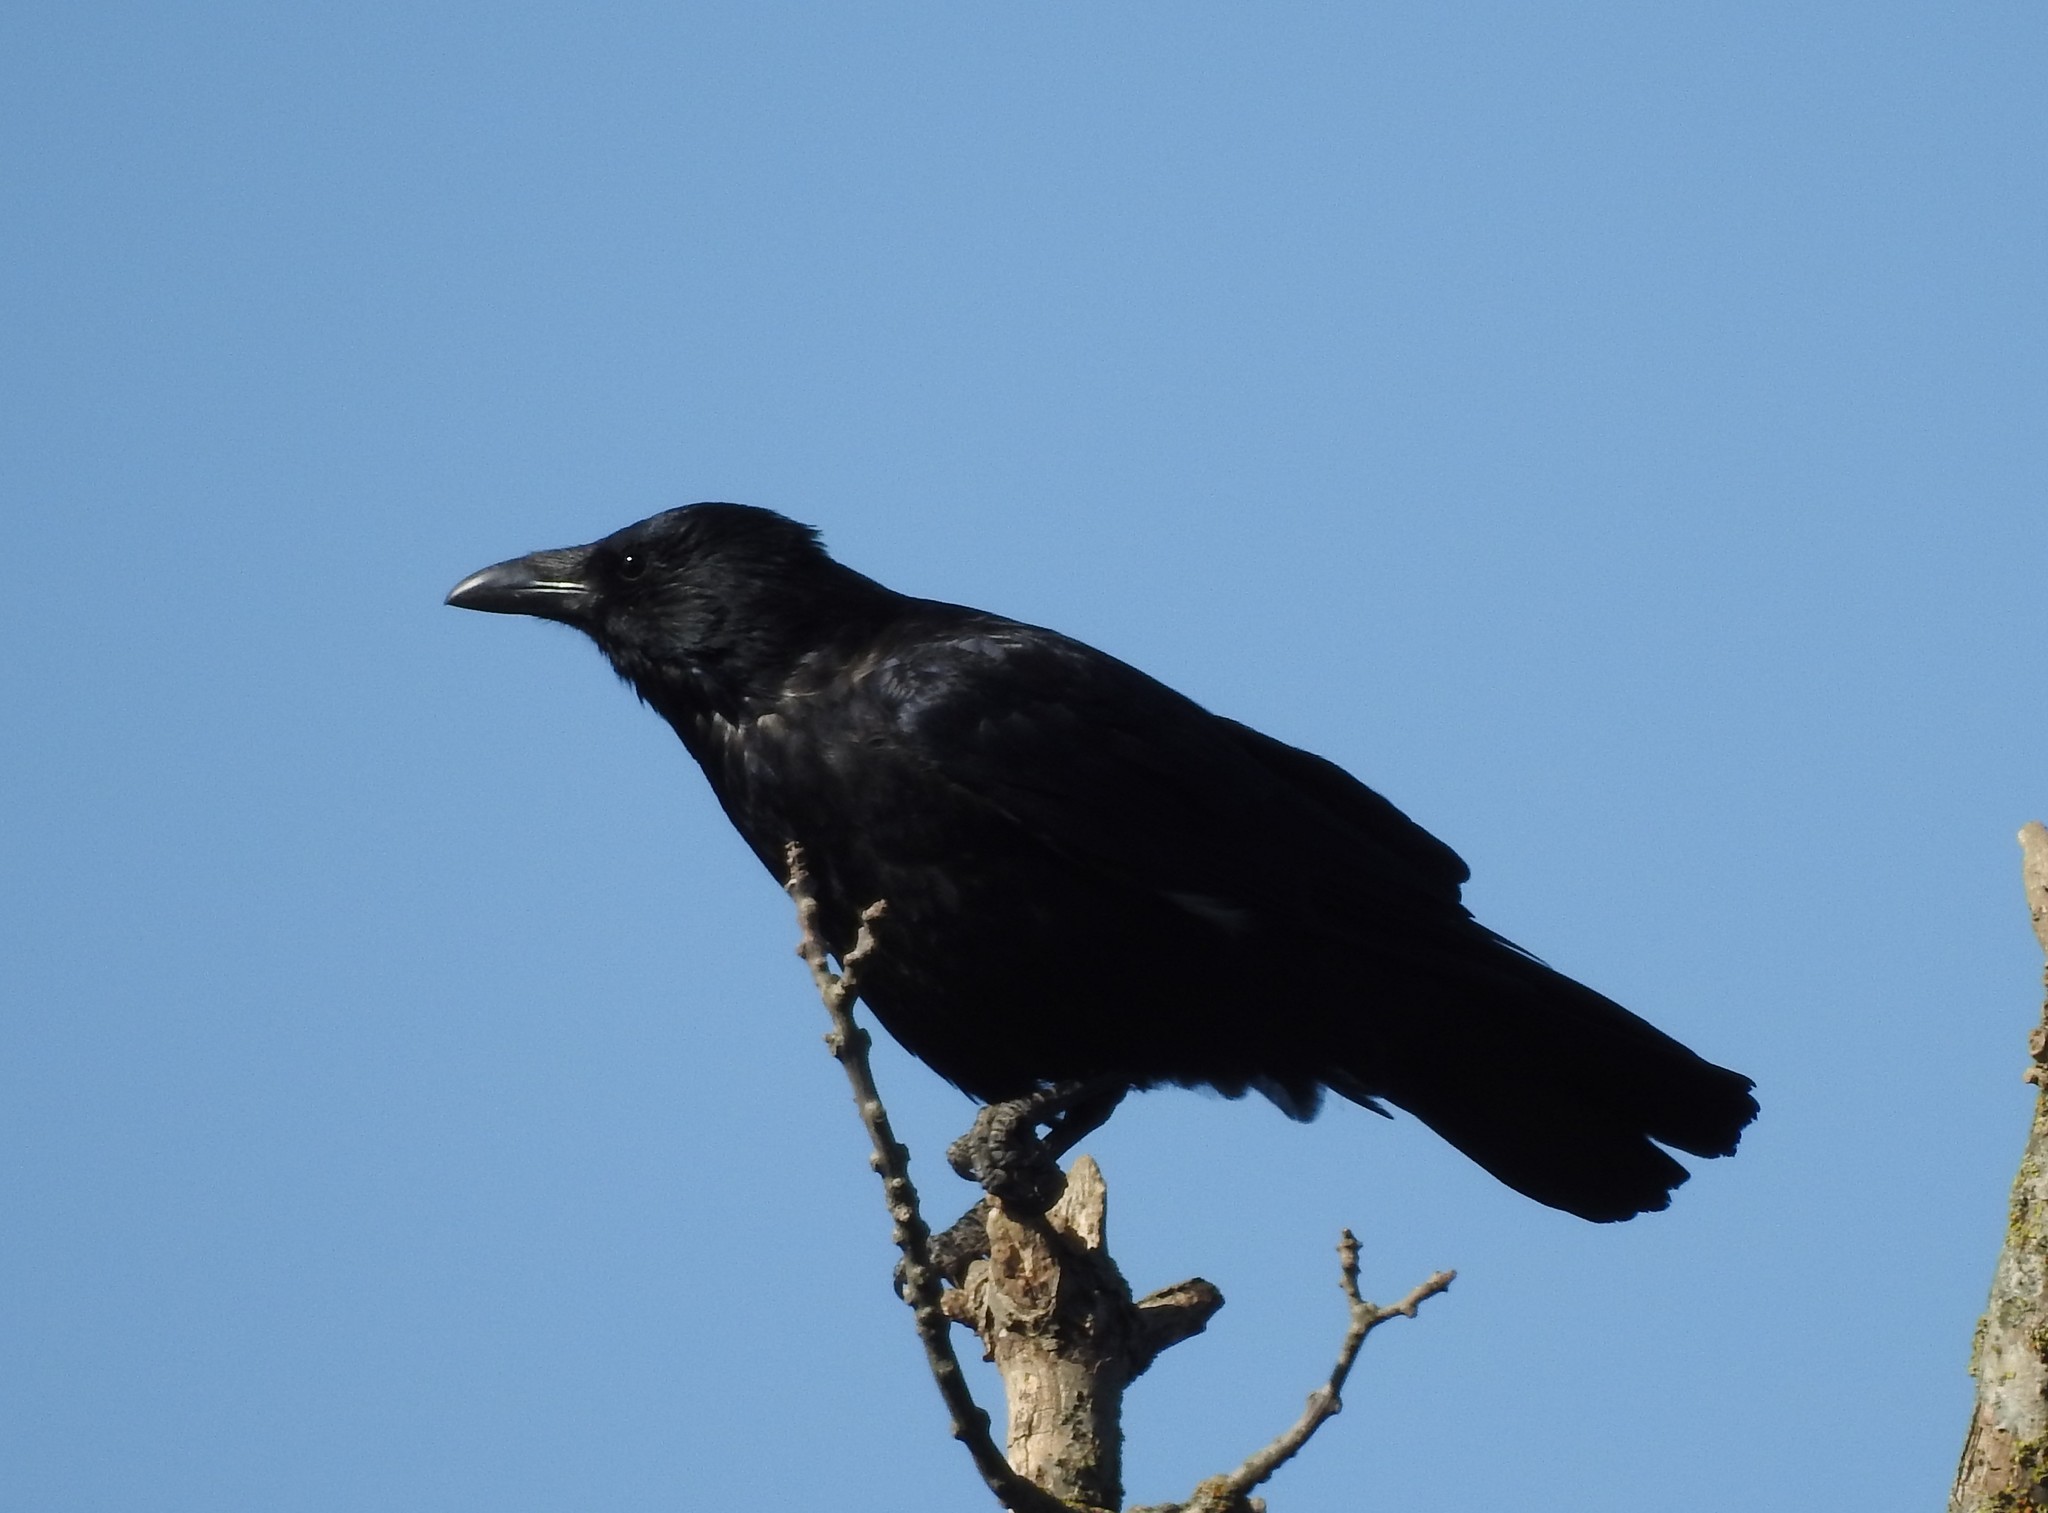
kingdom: Animalia
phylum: Chordata
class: Aves
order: Passeriformes
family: Corvidae
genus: Corvus
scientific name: Corvus corone
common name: Carrion crow
